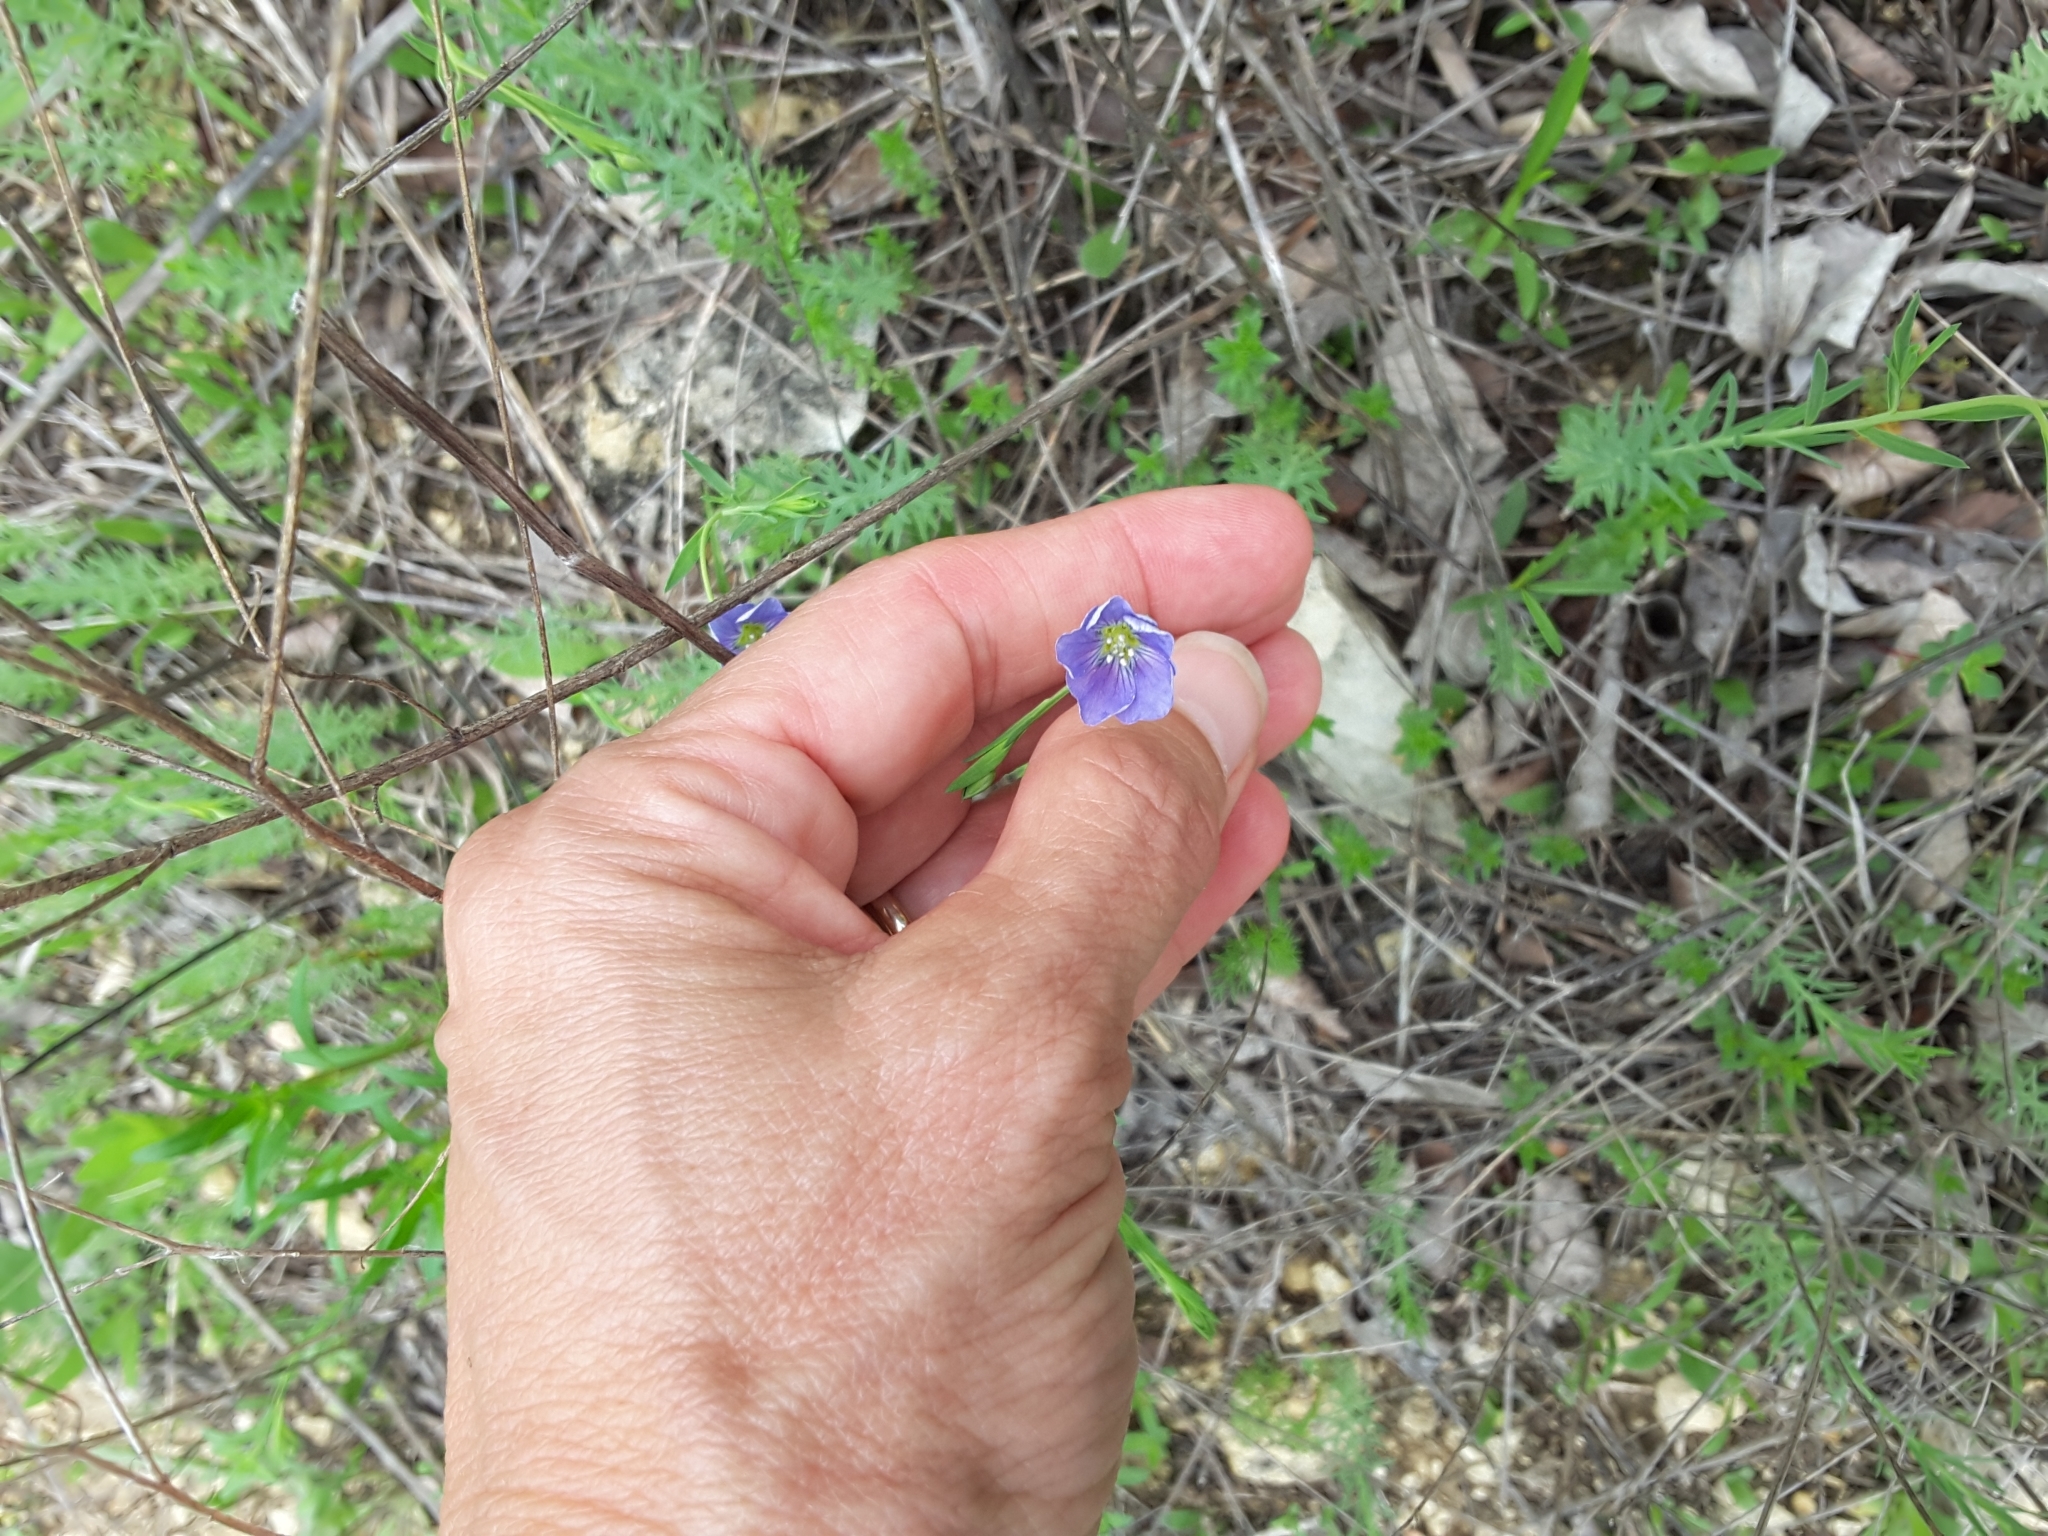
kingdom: Plantae
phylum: Tracheophyta
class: Magnoliopsida
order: Malpighiales
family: Linaceae
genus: Linum
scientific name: Linum pratense
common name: Norton's flax
